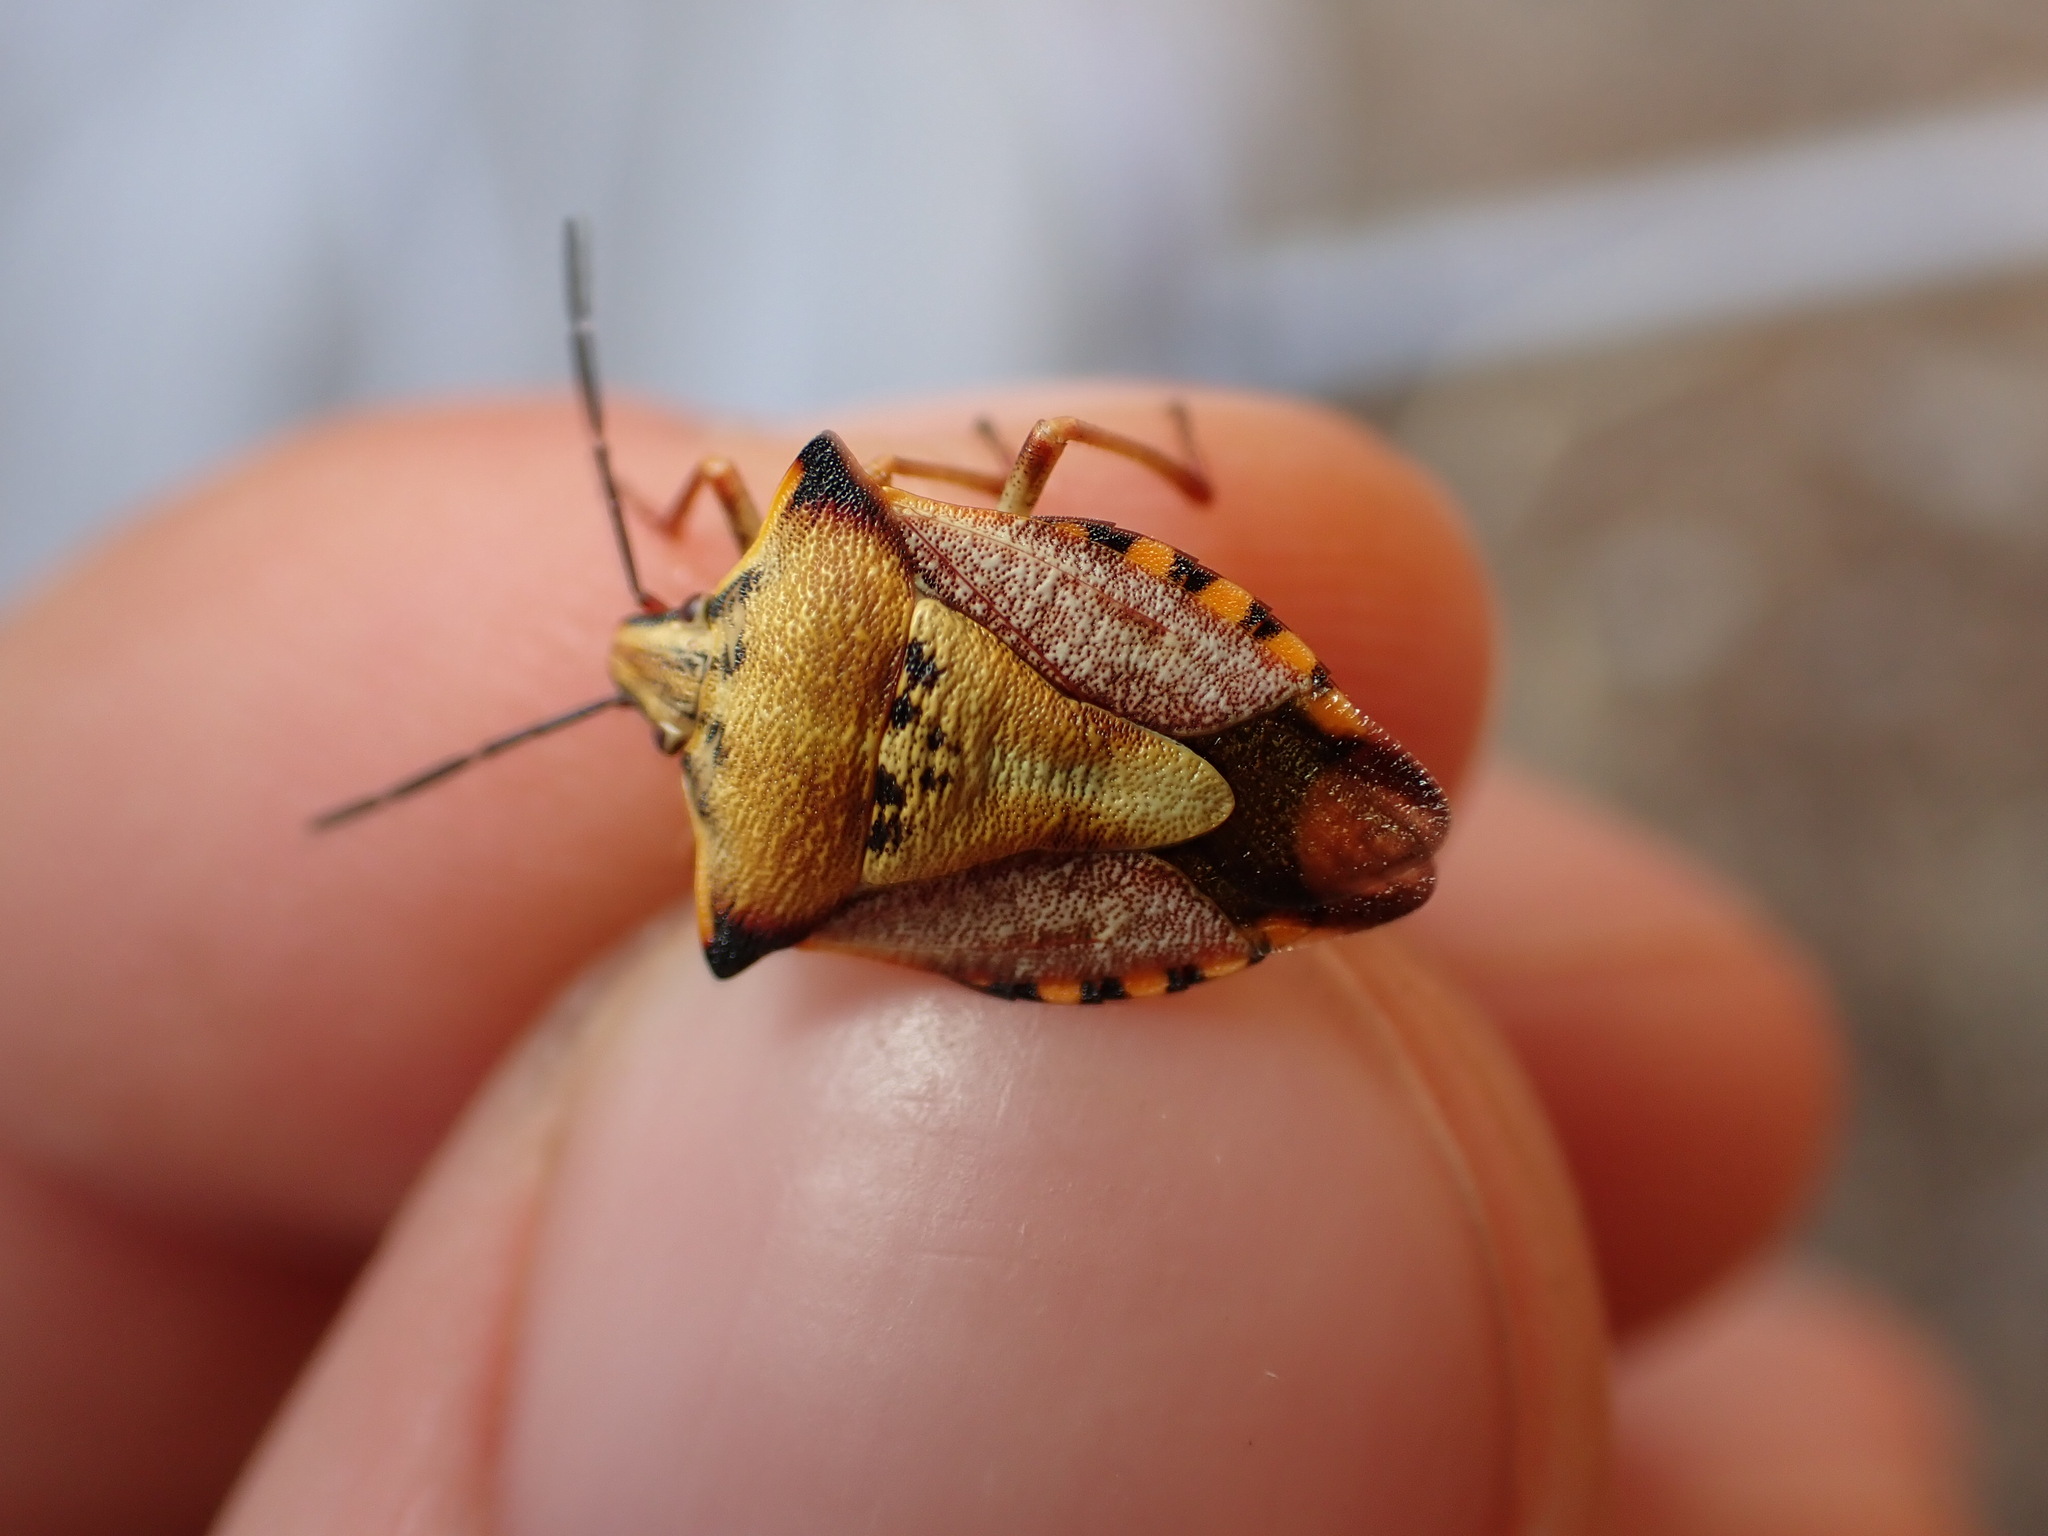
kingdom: Animalia
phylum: Arthropoda
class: Insecta
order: Hemiptera
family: Pentatomidae
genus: Carpocoris
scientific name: Carpocoris mediterraneus
